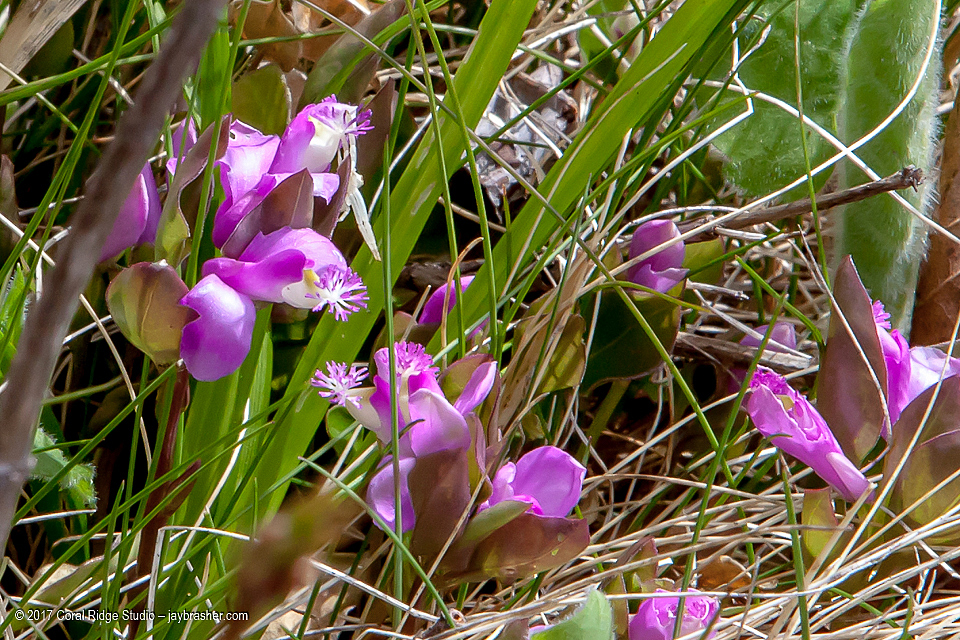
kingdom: Plantae
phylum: Tracheophyta
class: Magnoliopsida
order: Fabales
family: Polygalaceae
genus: Polygaloides
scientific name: Polygaloides paucifolia
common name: Bird-on-the-wing
